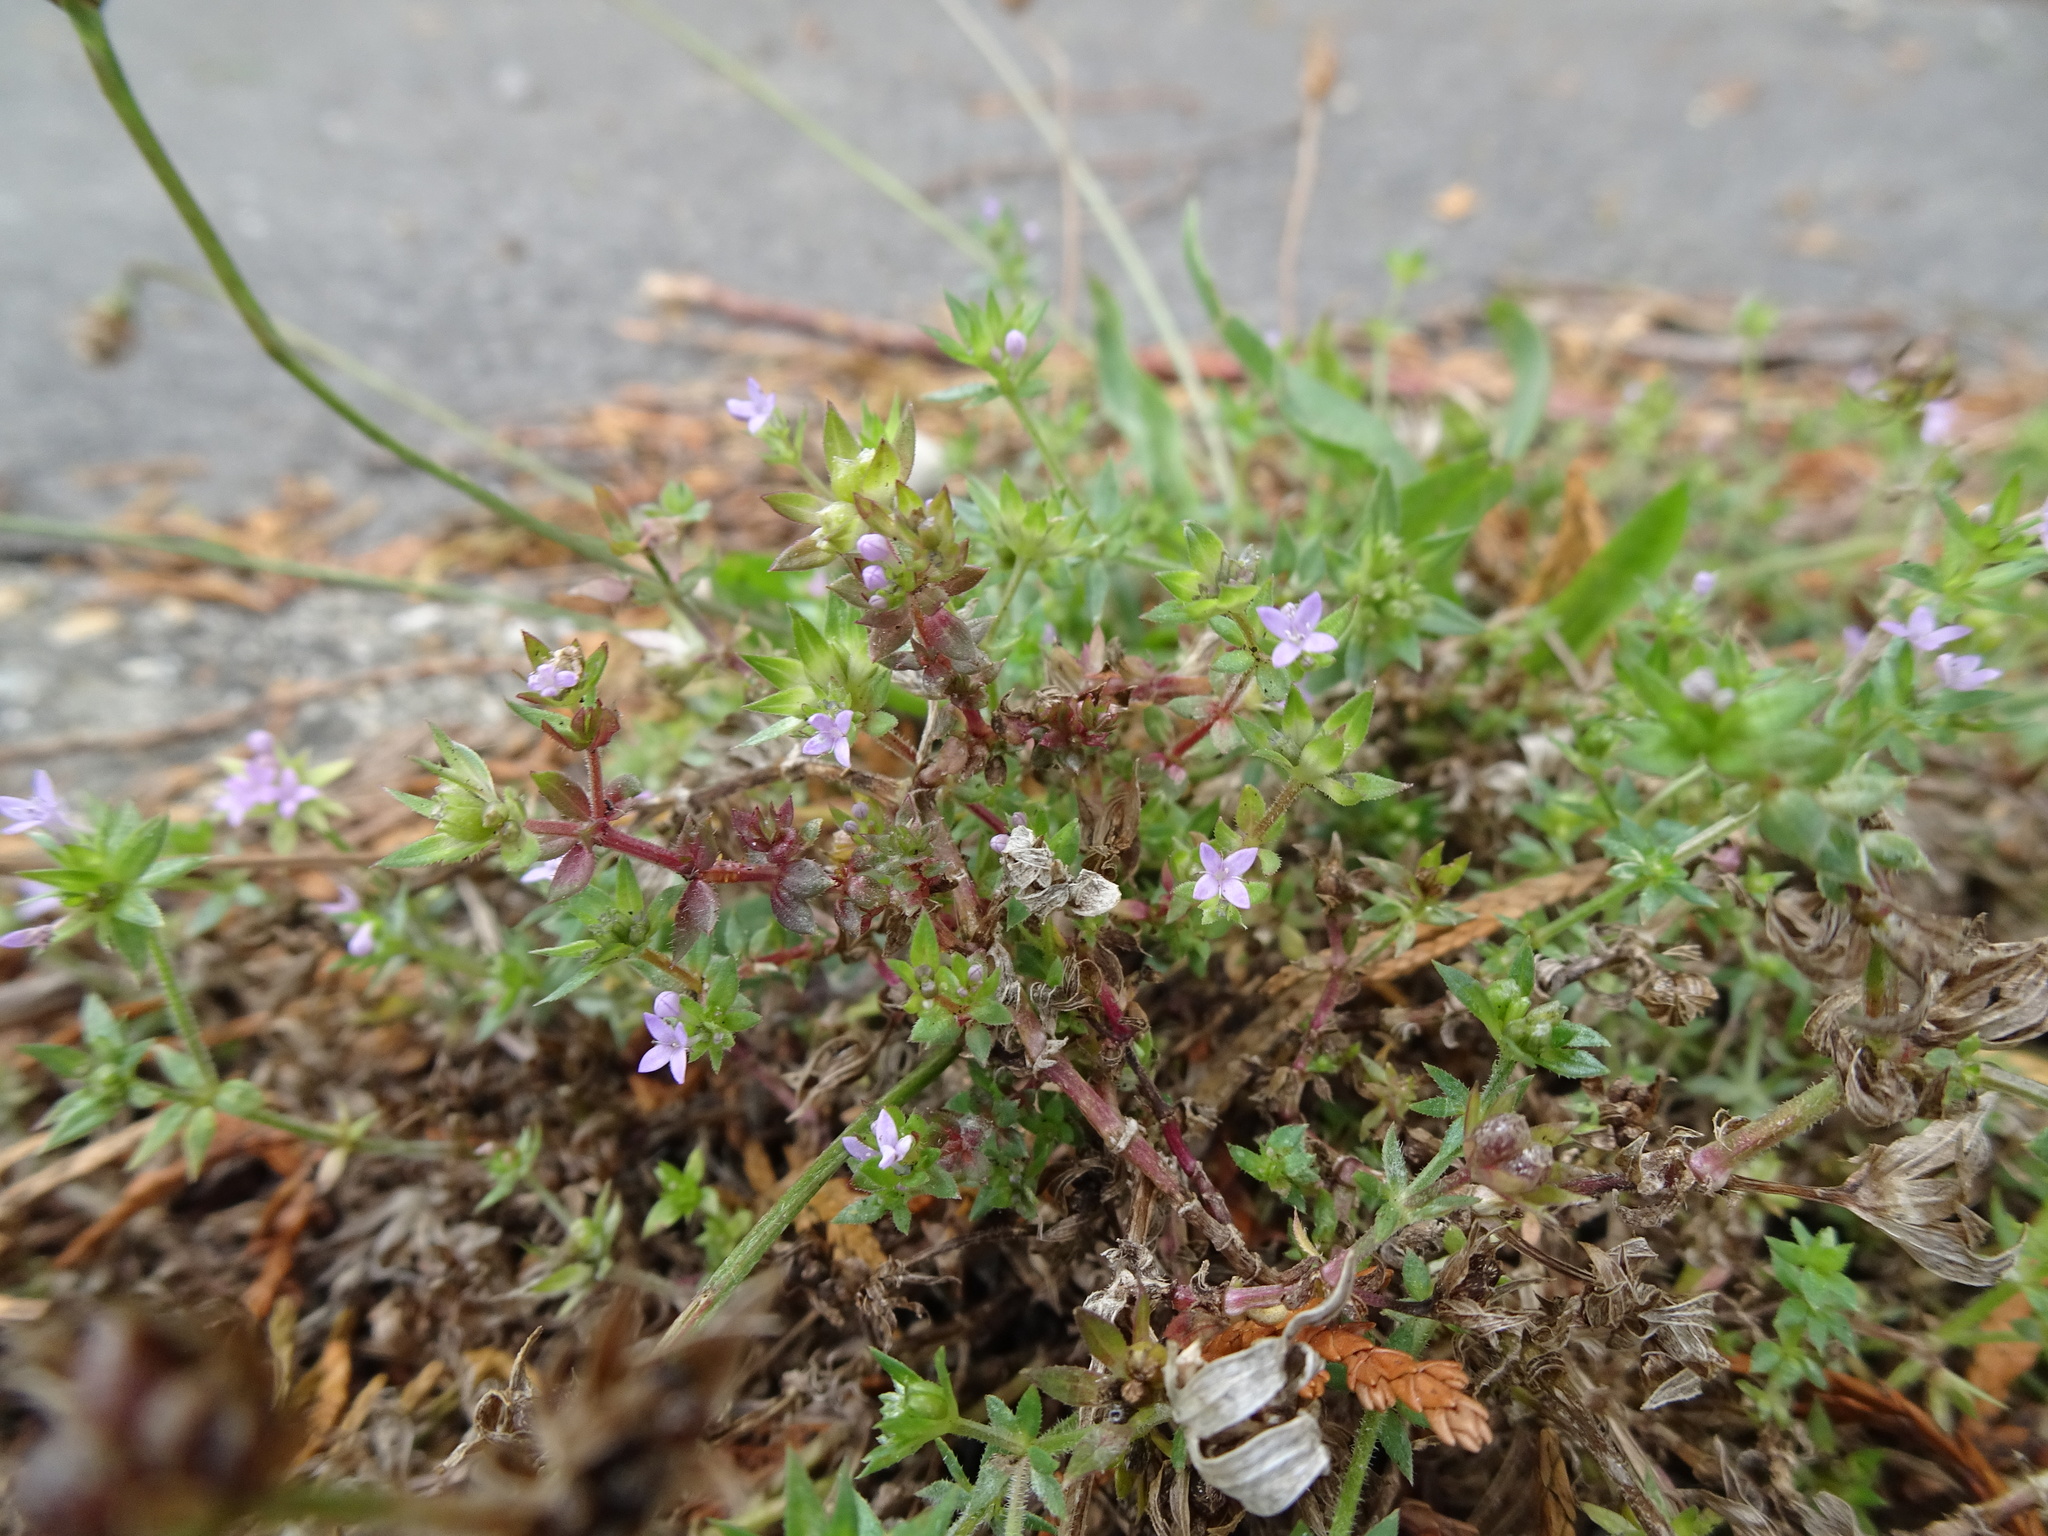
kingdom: Plantae
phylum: Tracheophyta
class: Magnoliopsida
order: Gentianales
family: Rubiaceae
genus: Sherardia
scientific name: Sherardia arvensis
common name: Field madder
